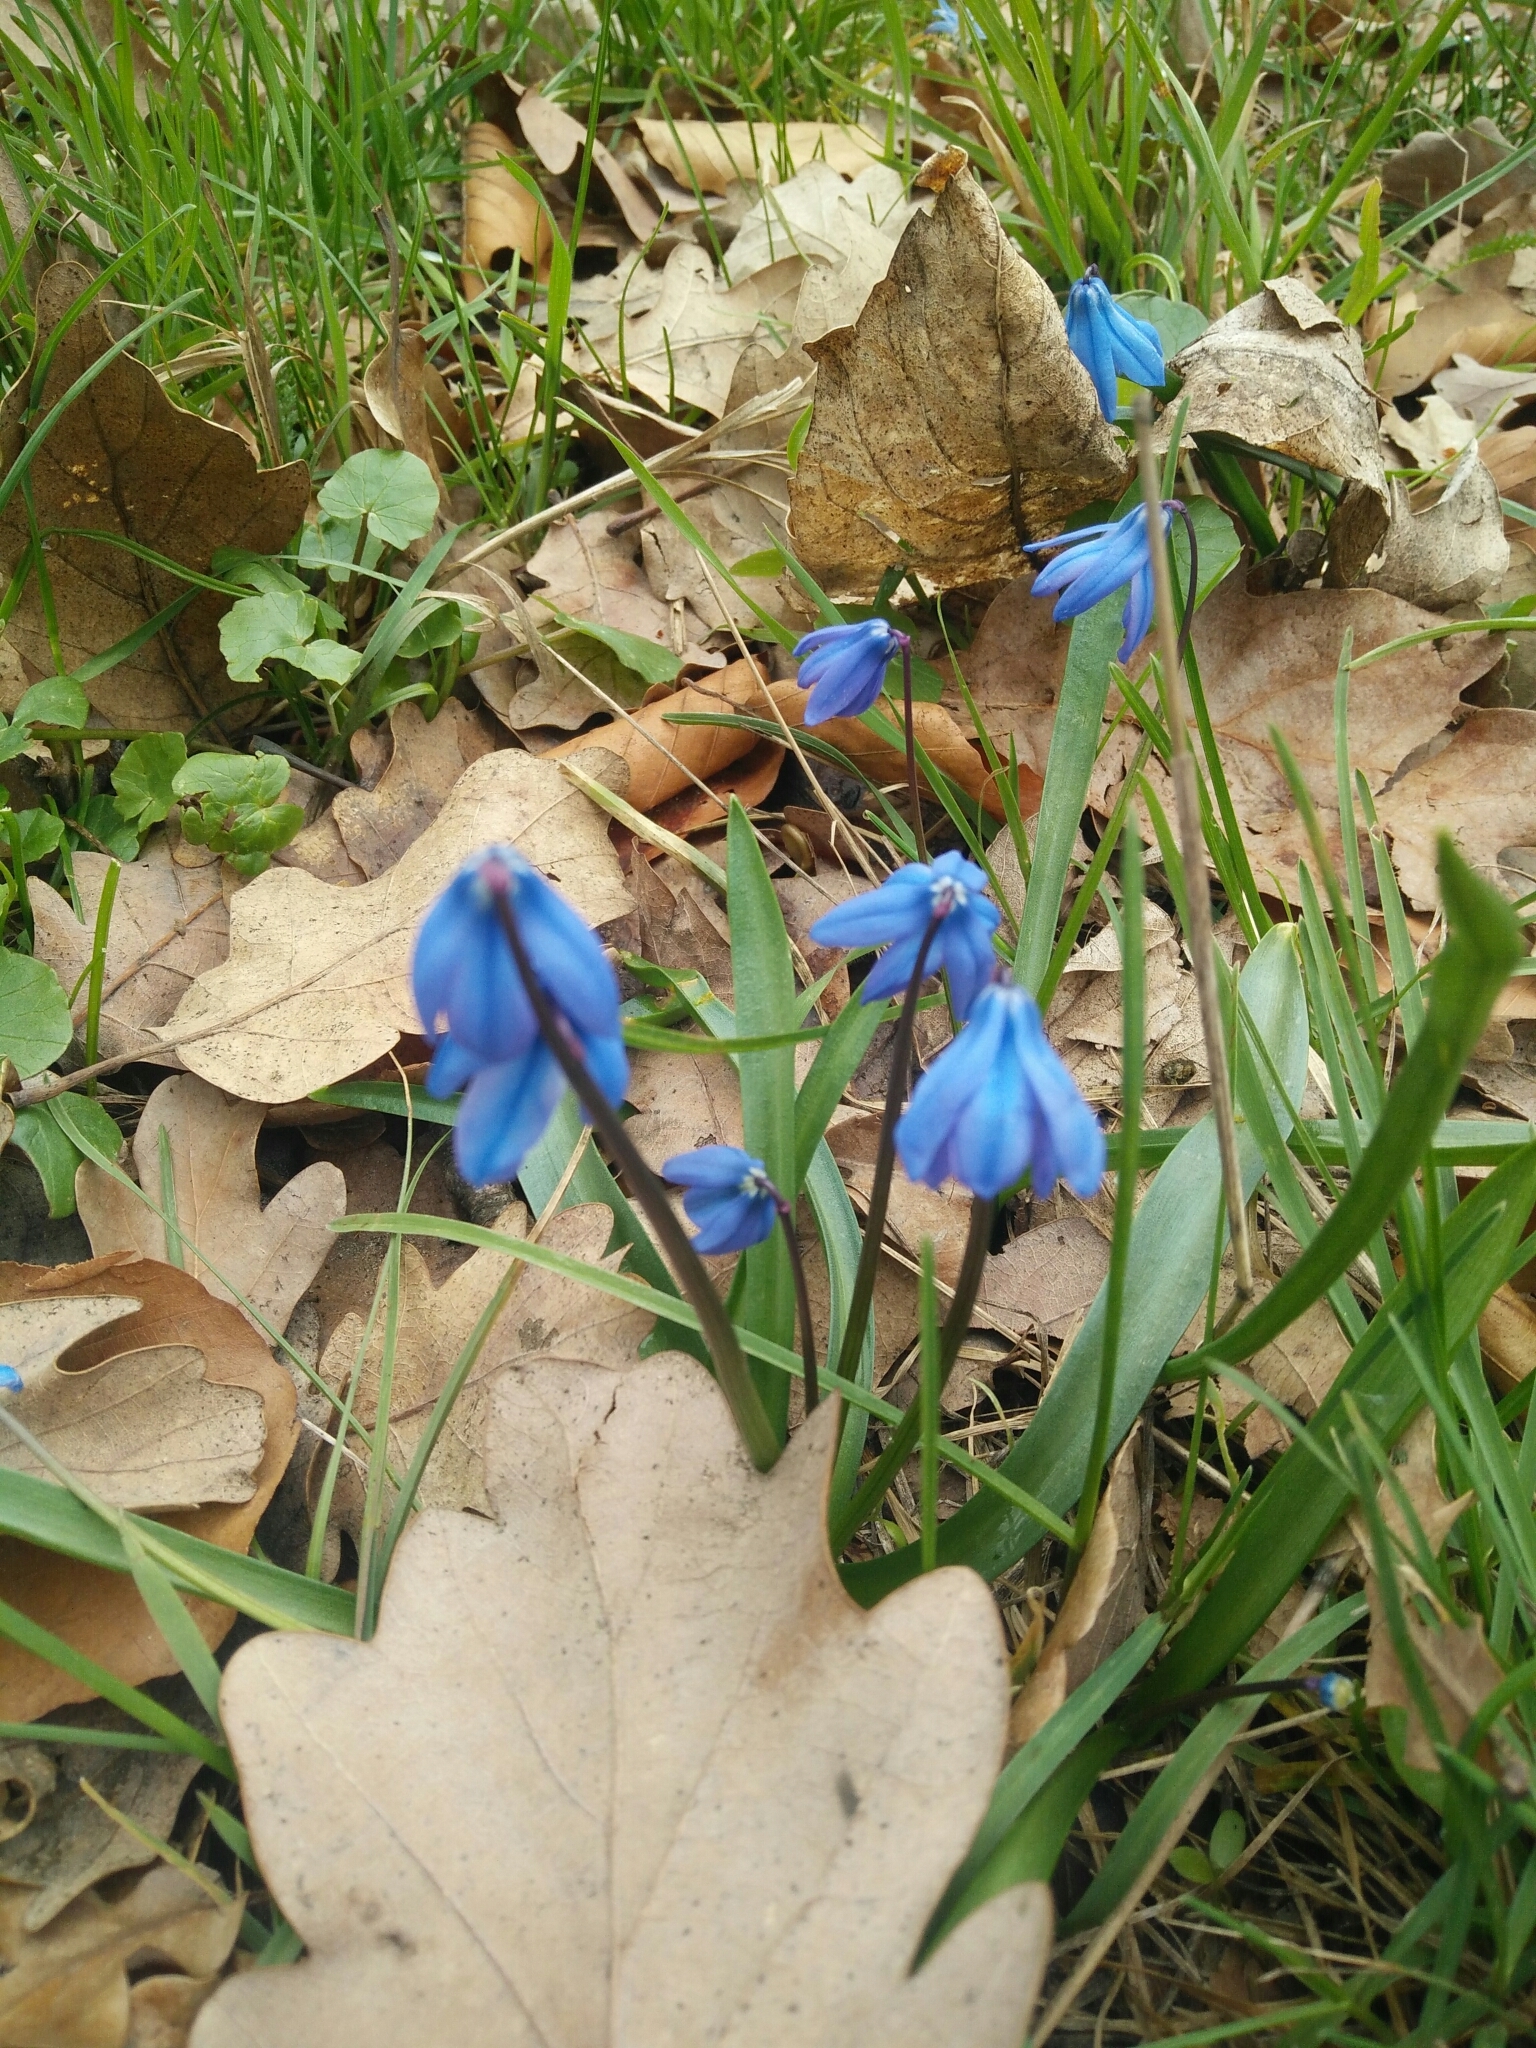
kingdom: Plantae
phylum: Tracheophyta
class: Liliopsida
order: Asparagales
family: Asparagaceae
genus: Scilla
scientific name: Scilla siberica
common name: Siberian squill
